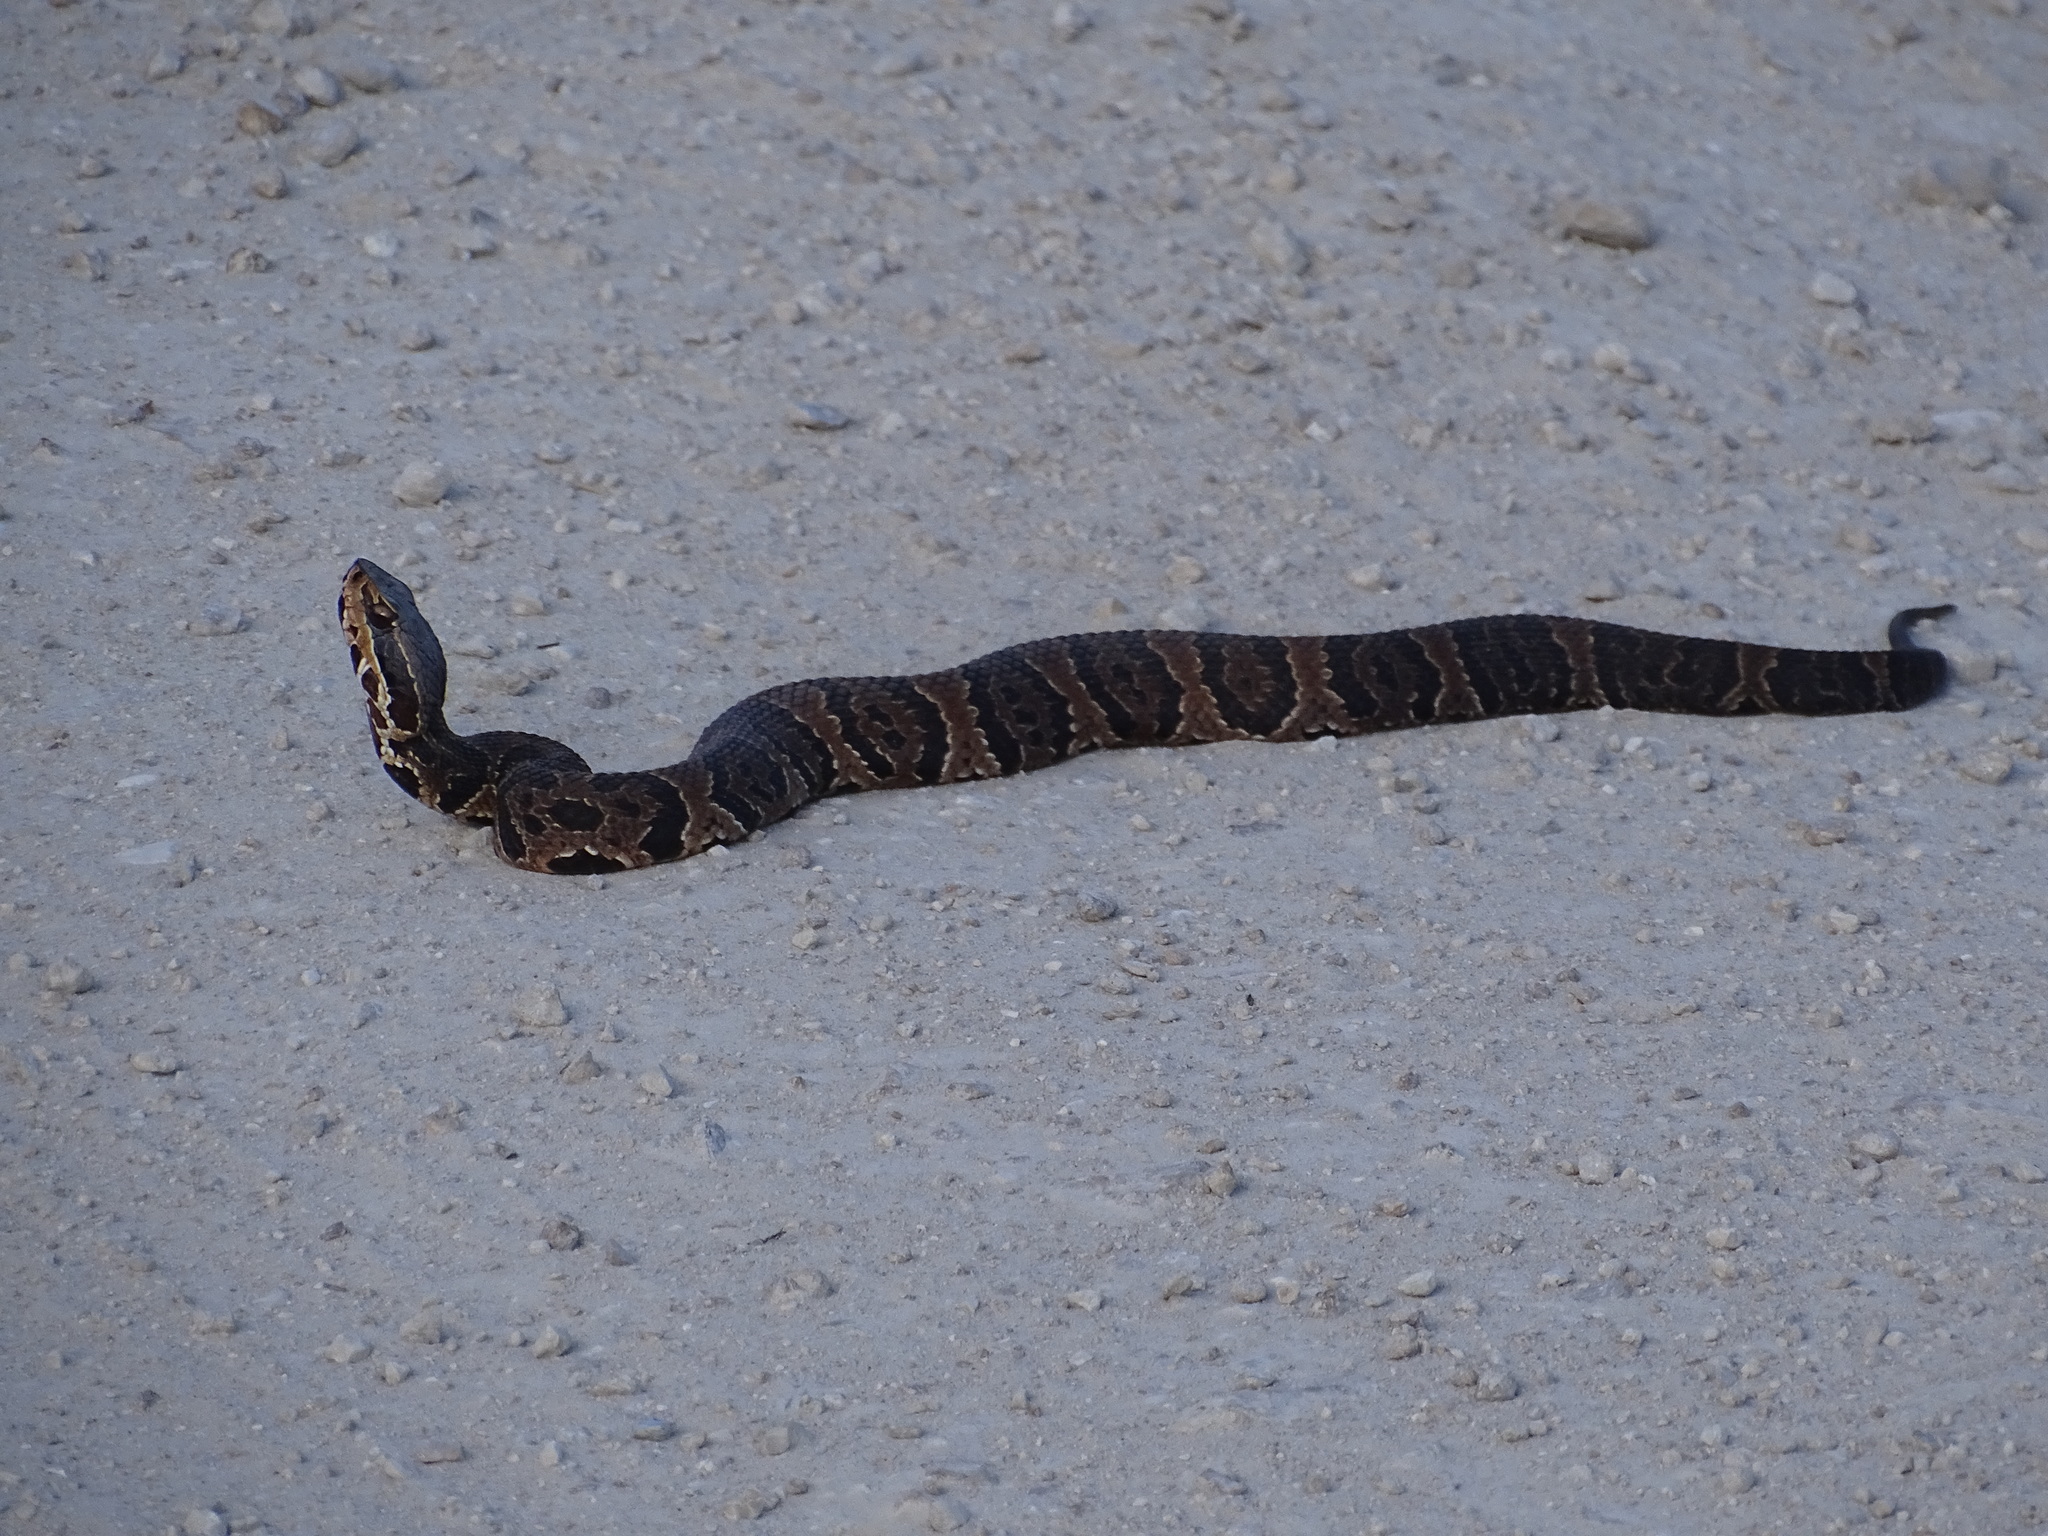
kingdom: Animalia
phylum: Chordata
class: Squamata
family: Viperidae
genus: Agkistrodon
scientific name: Agkistrodon conanti
